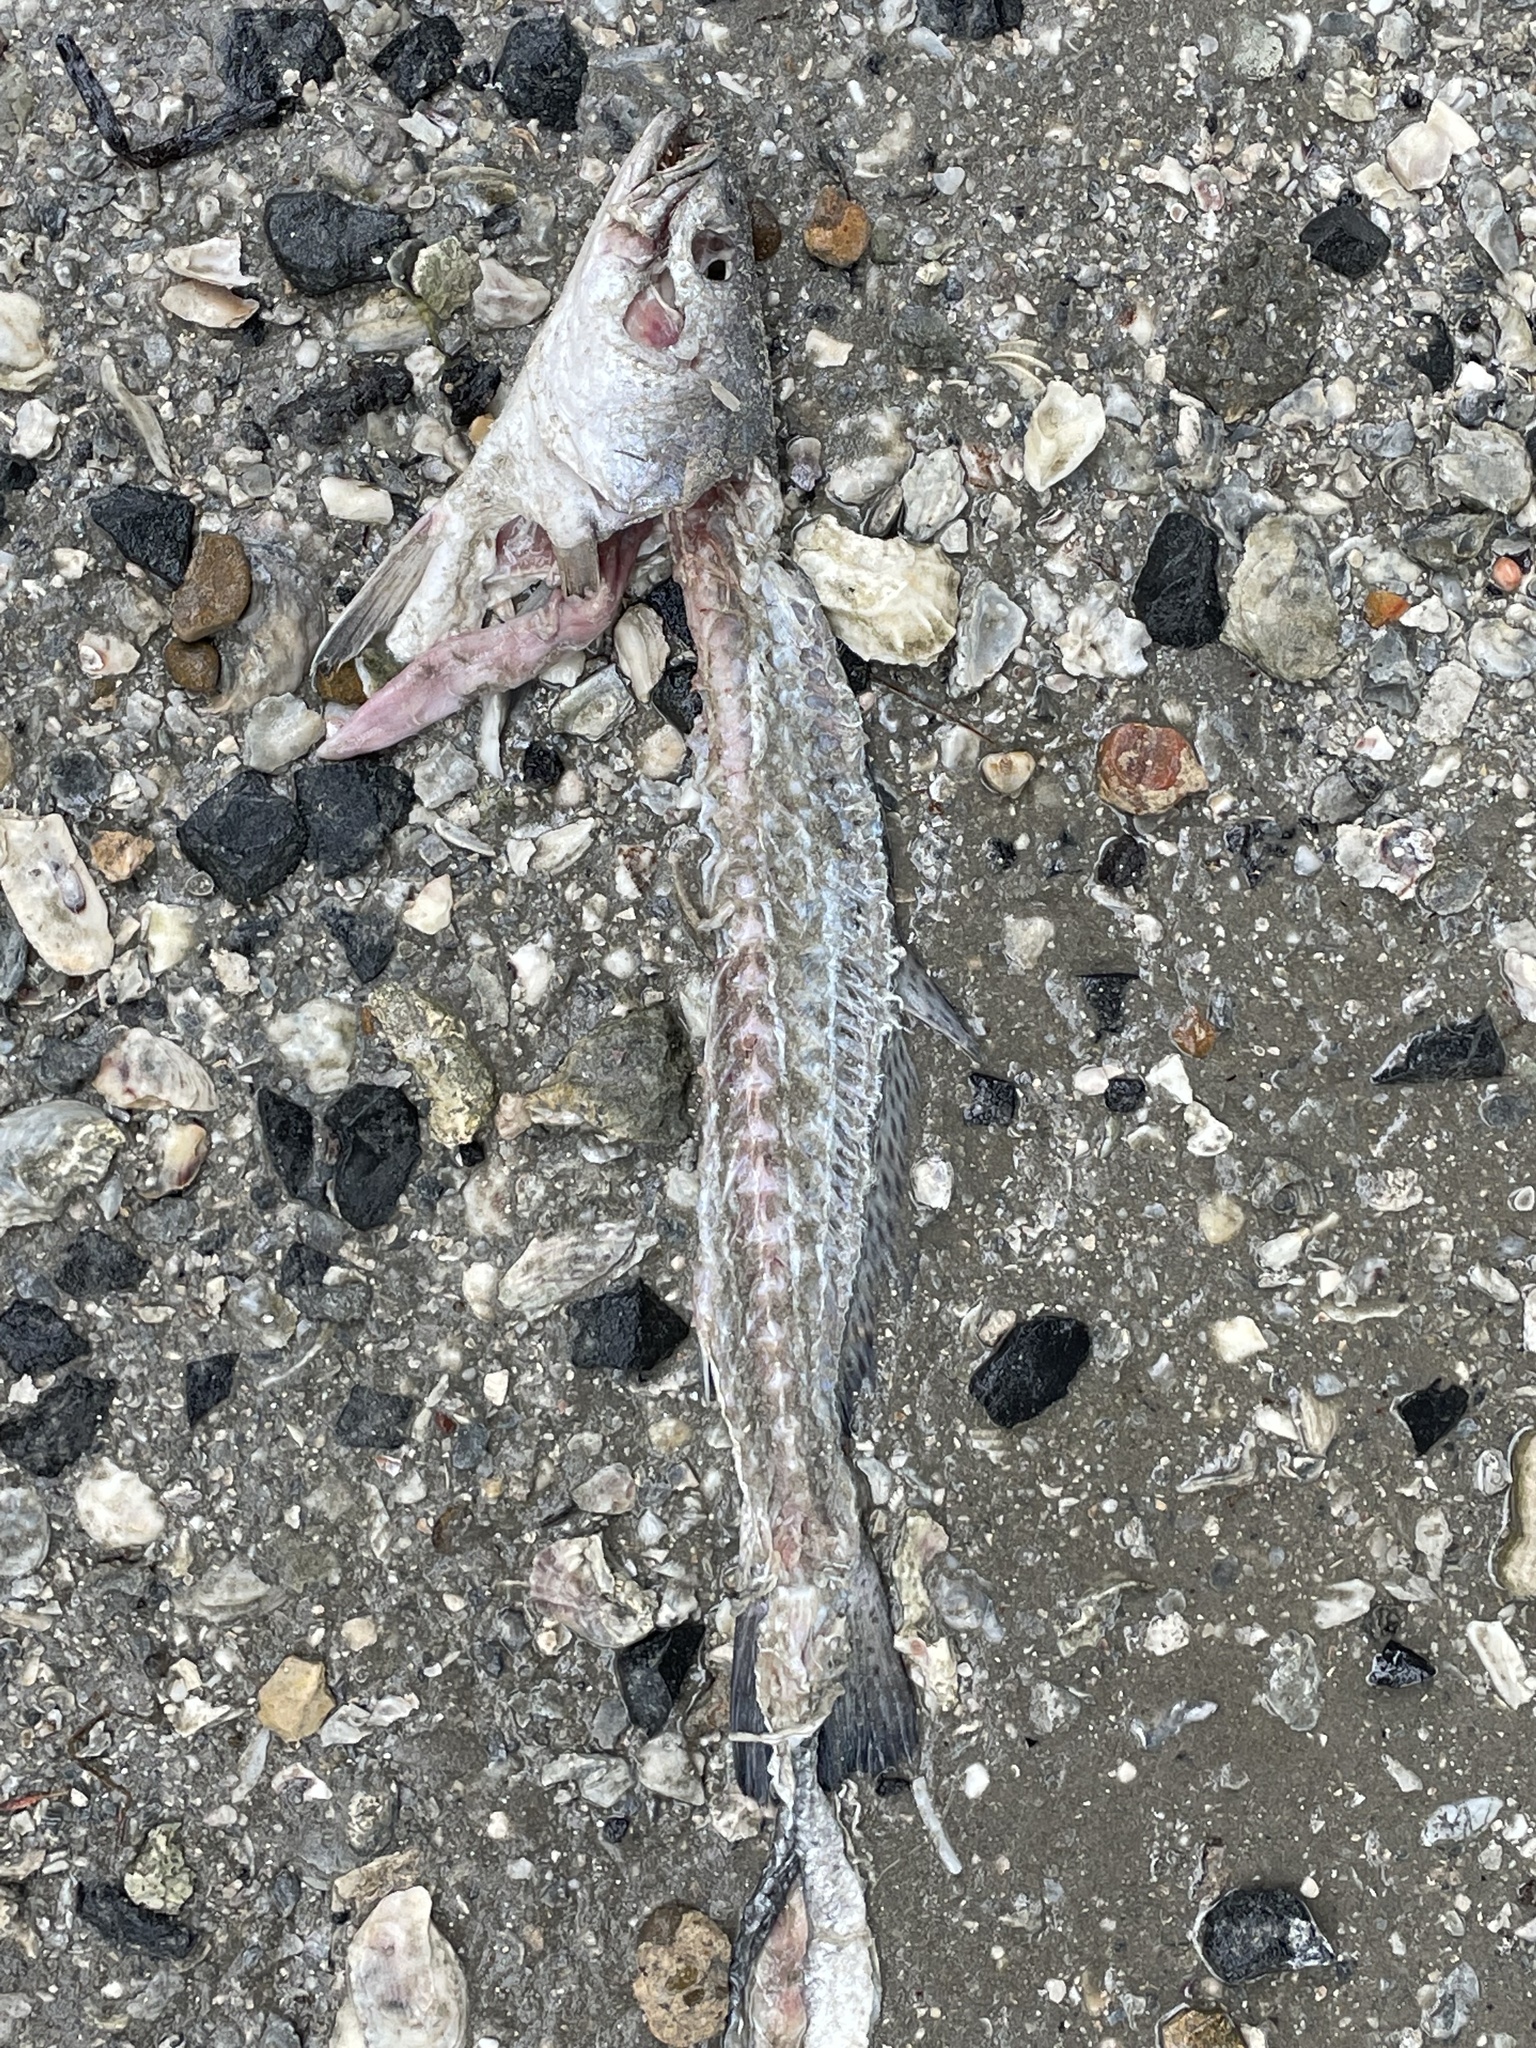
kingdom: Animalia
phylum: Chordata
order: Perciformes
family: Sciaenidae
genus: Cynoscion
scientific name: Cynoscion nebulosus
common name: Spotted seatrout
